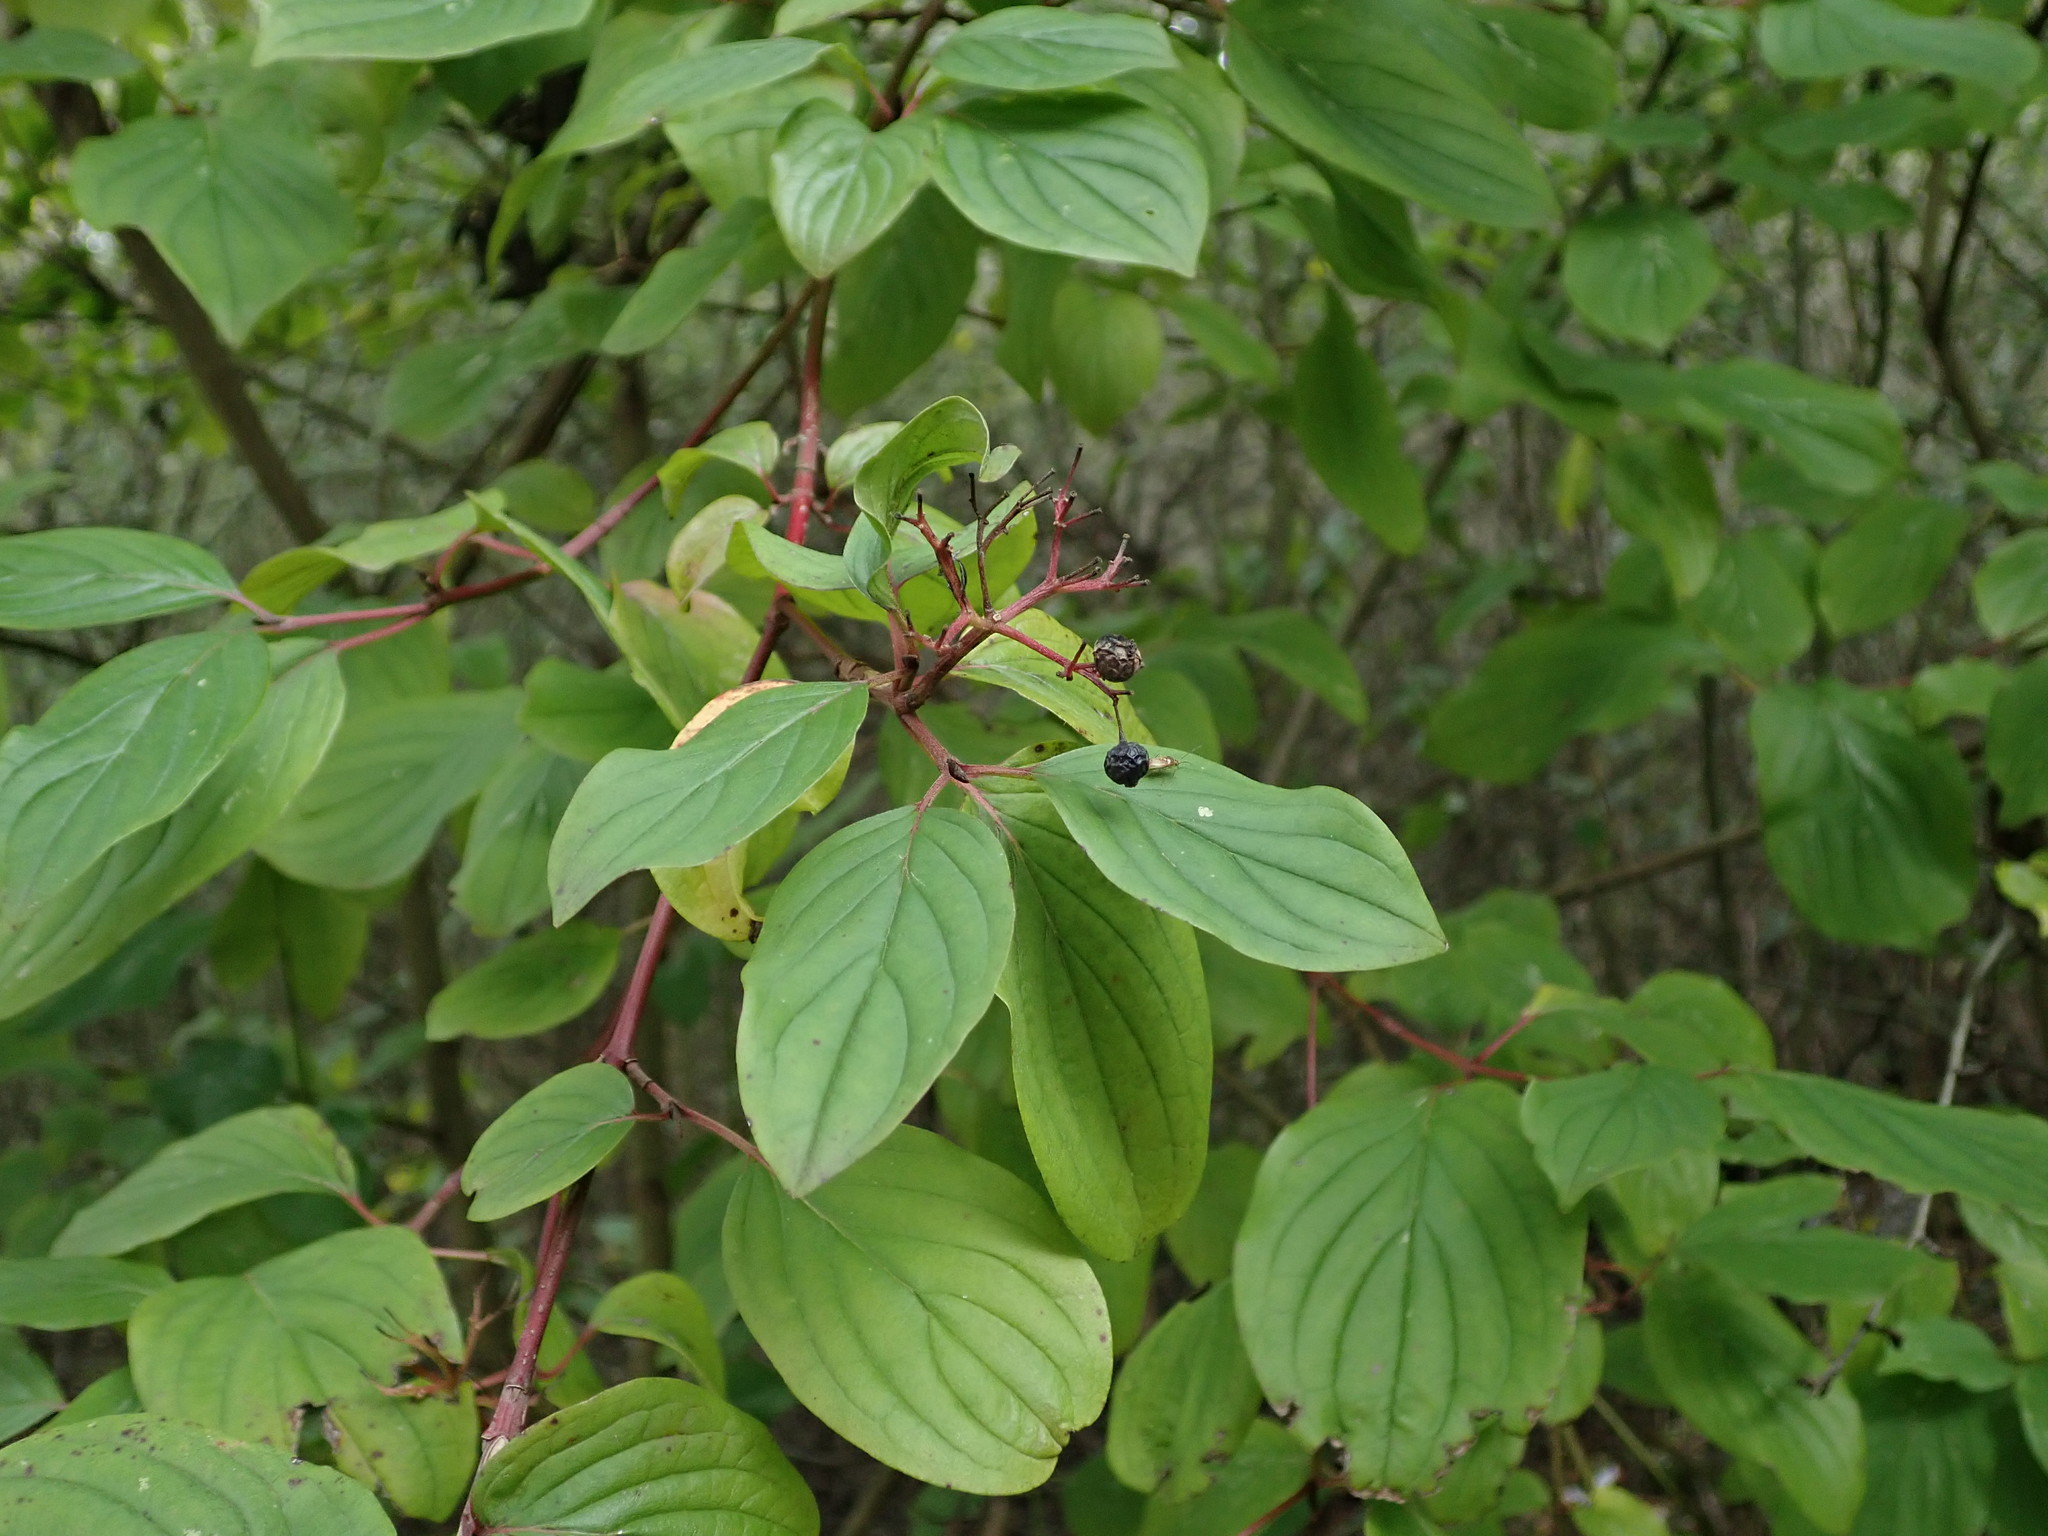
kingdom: Plantae
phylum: Tracheophyta
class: Magnoliopsida
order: Cornales
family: Cornaceae
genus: Cornus
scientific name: Cornus sanguinea
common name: Dogwood
